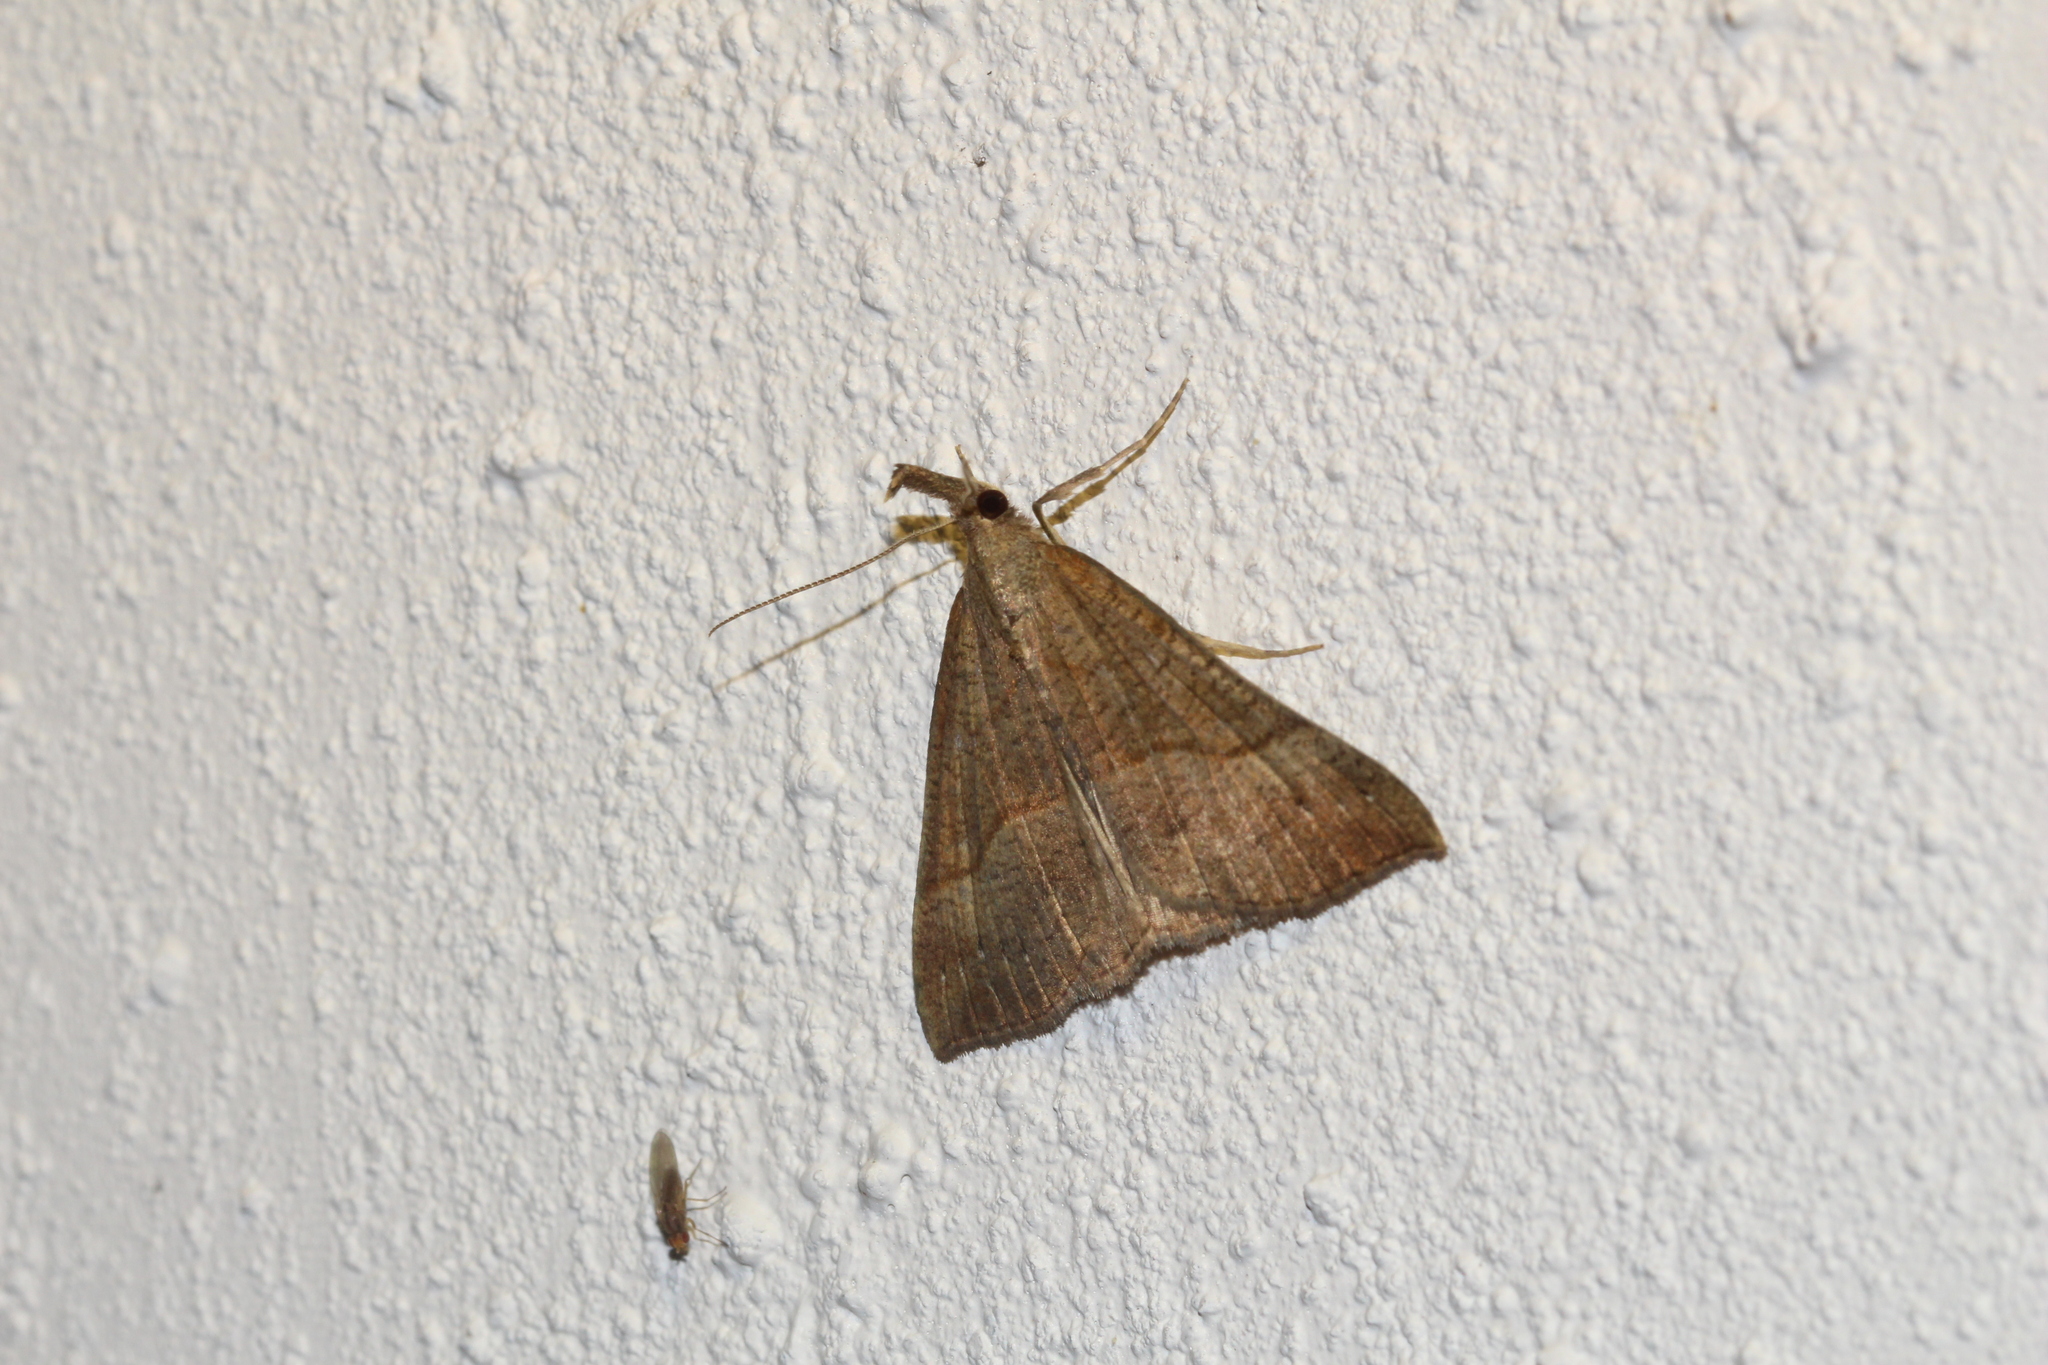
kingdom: Animalia
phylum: Arthropoda
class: Insecta
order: Lepidoptera
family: Erebidae
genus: Hypena
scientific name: Hypena proboscidalis
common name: Snout
